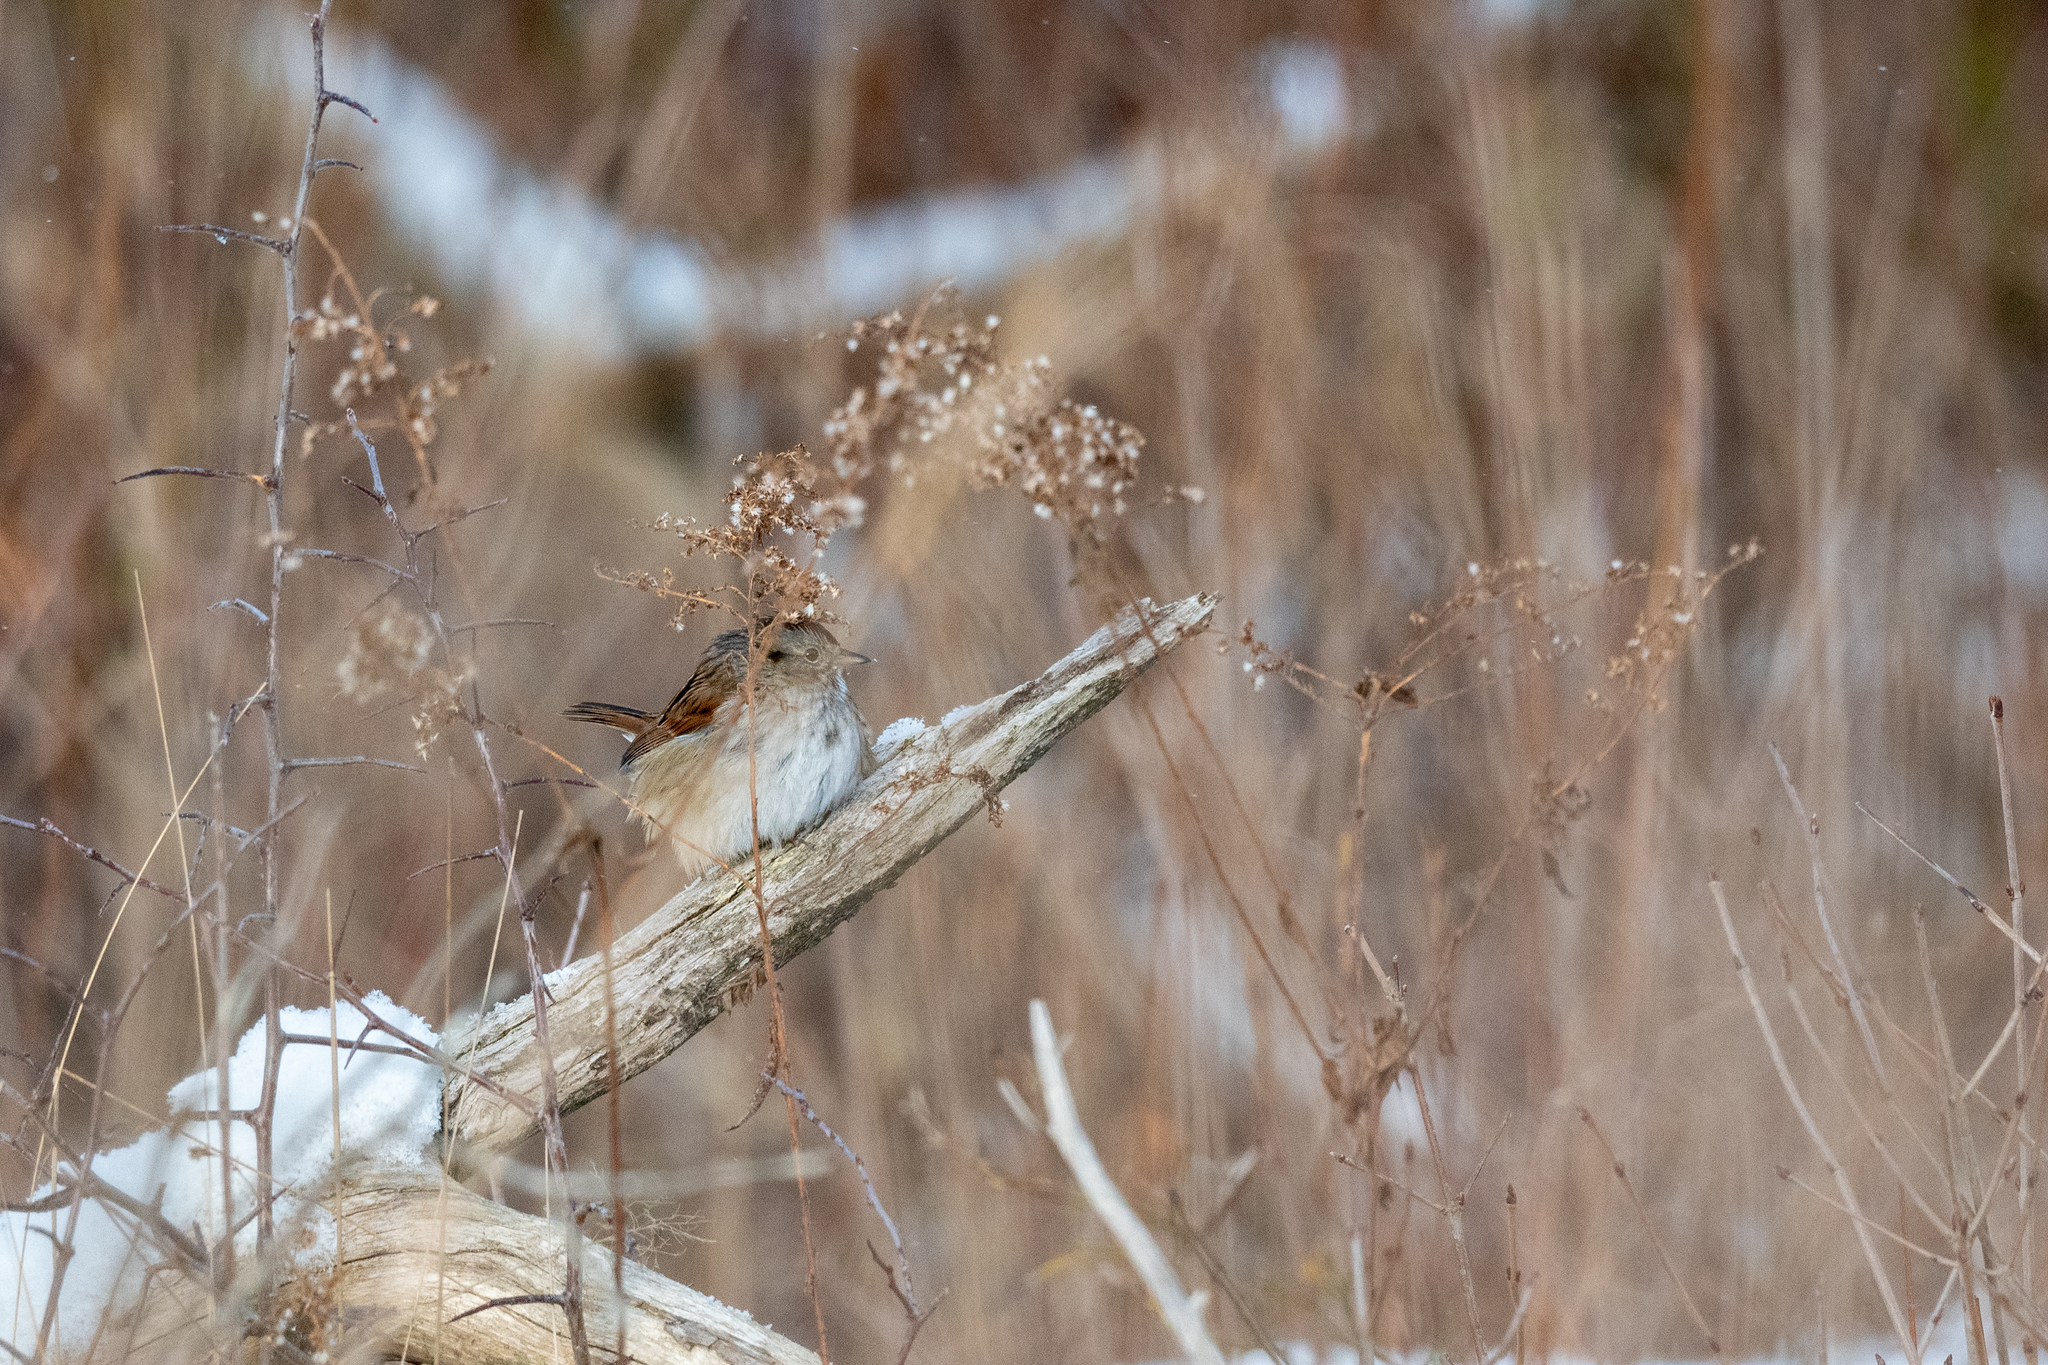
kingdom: Animalia
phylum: Chordata
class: Aves
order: Passeriformes
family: Passerellidae
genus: Melospiza
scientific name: Melospiza georgiana
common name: Swamp sparrow
